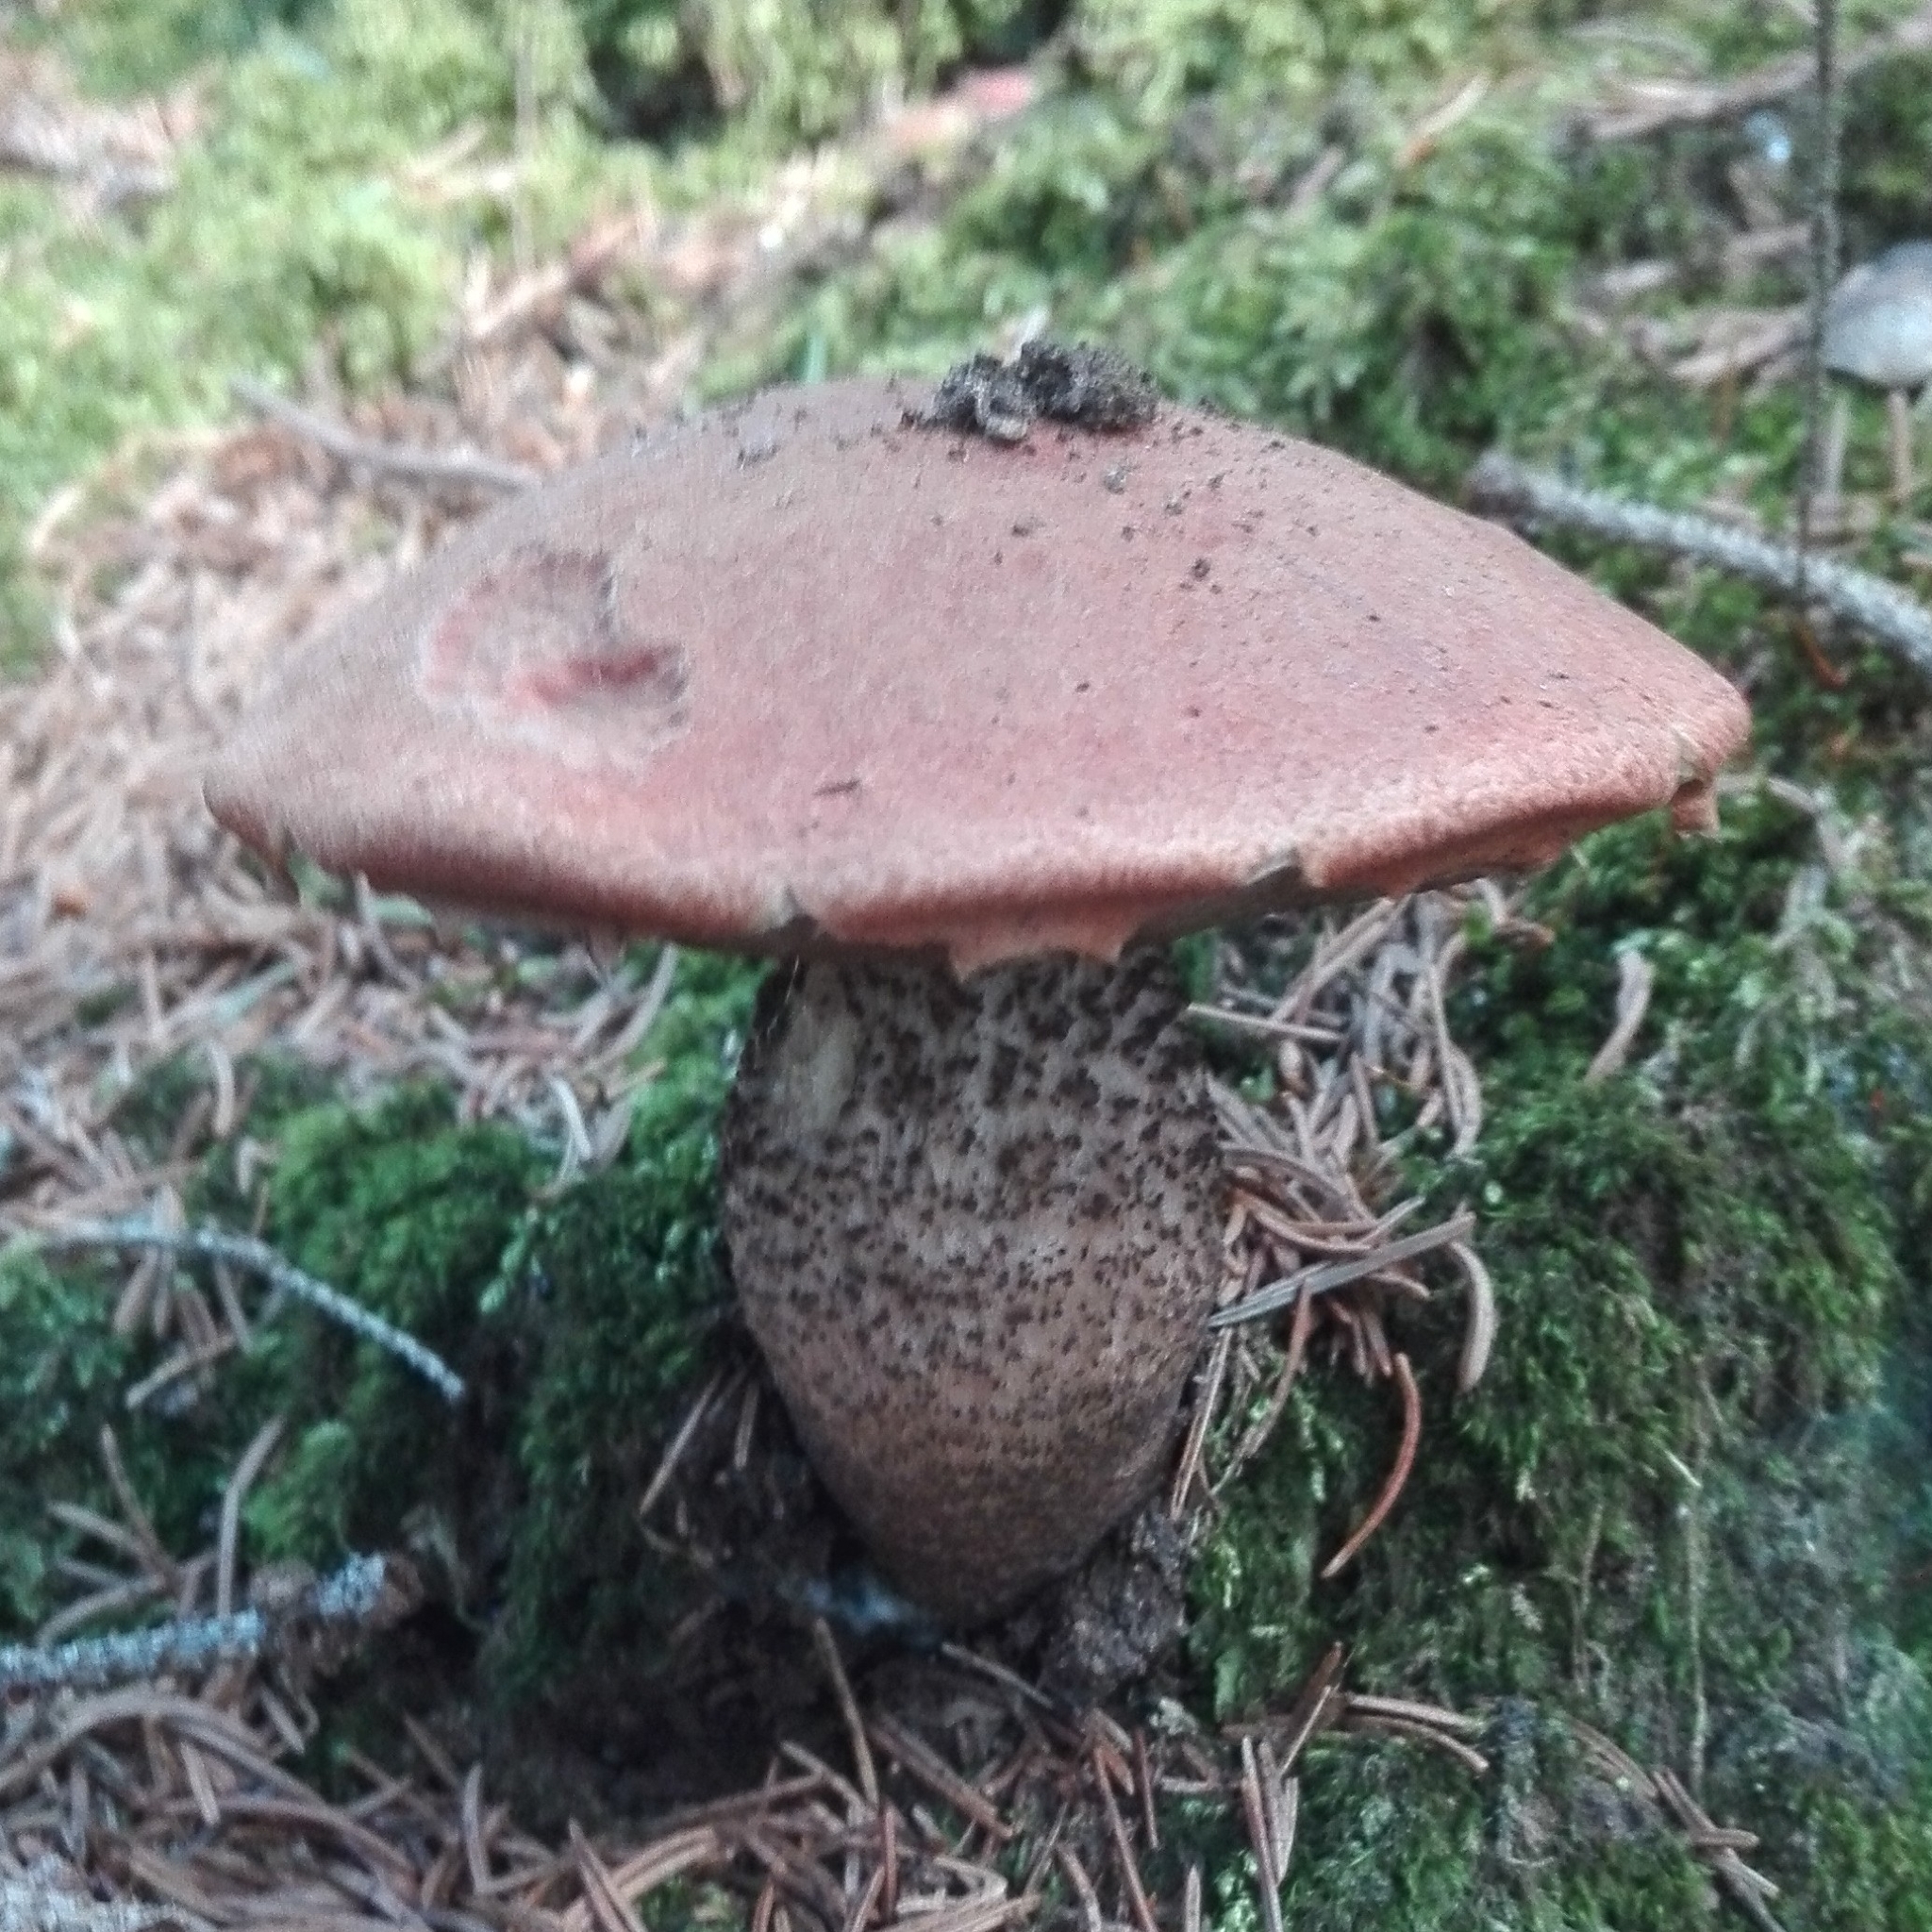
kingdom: Fungi
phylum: Basidiomycota
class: Agaricomycetes
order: Boletales
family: Boletaceae
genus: Leccinum
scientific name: Leccinum scabrum
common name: Blushing bolete
